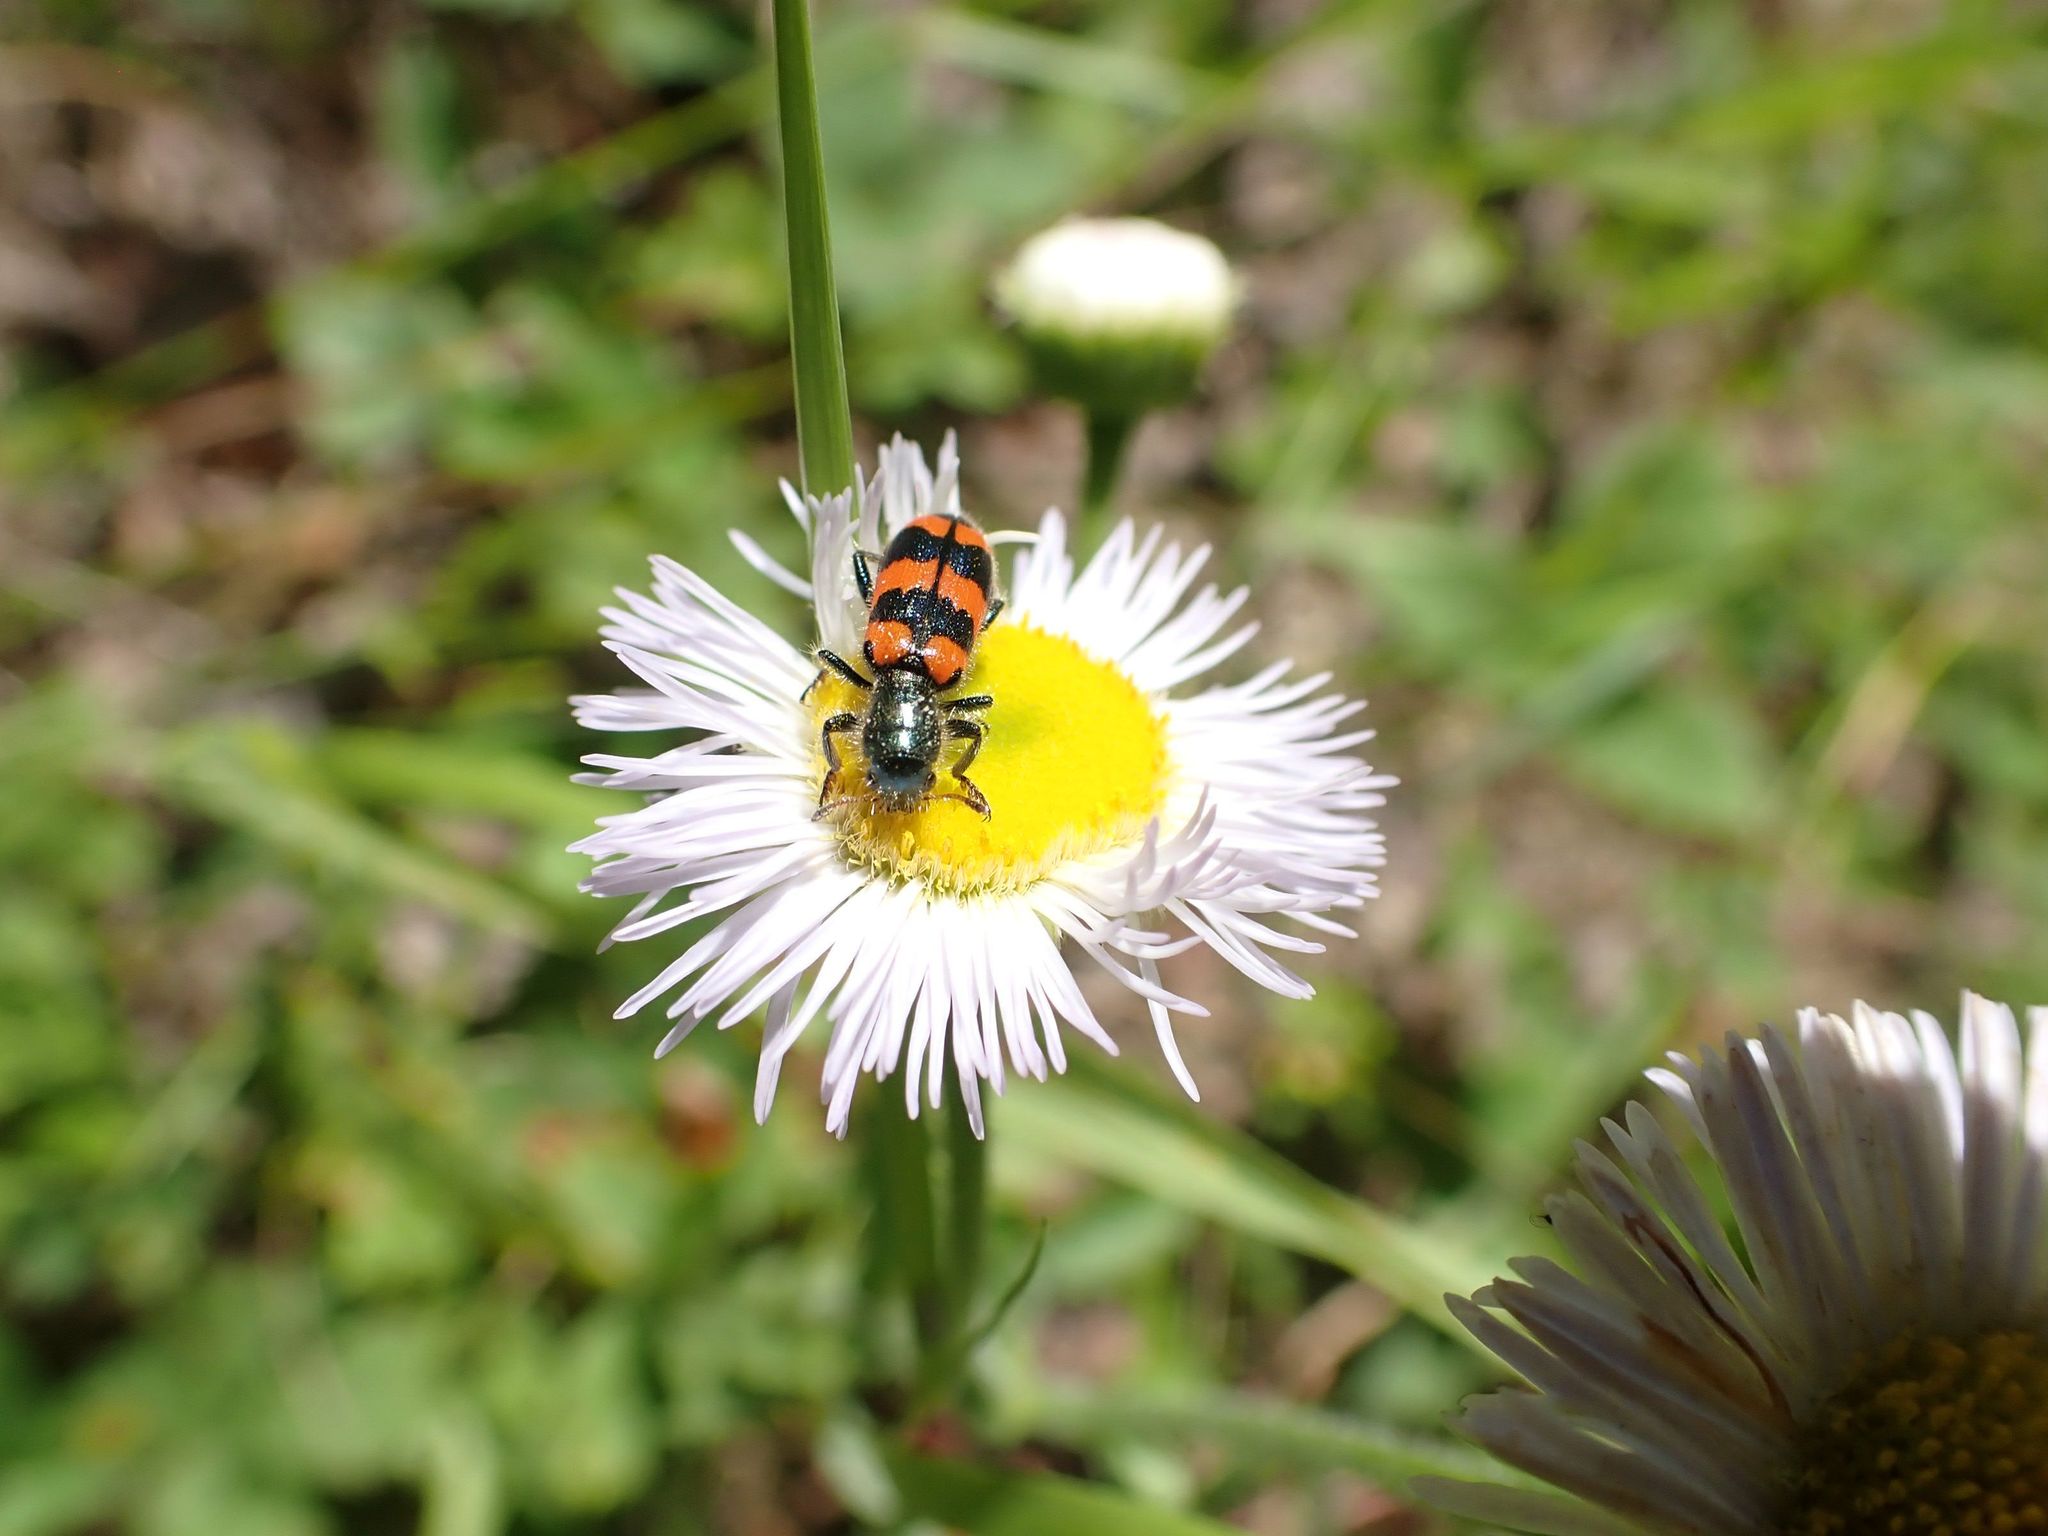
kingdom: Animalia
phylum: Arthropoda
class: Insecta
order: Coleoptera
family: Cleridae
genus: Trichodes
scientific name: Trichodes nutalli
